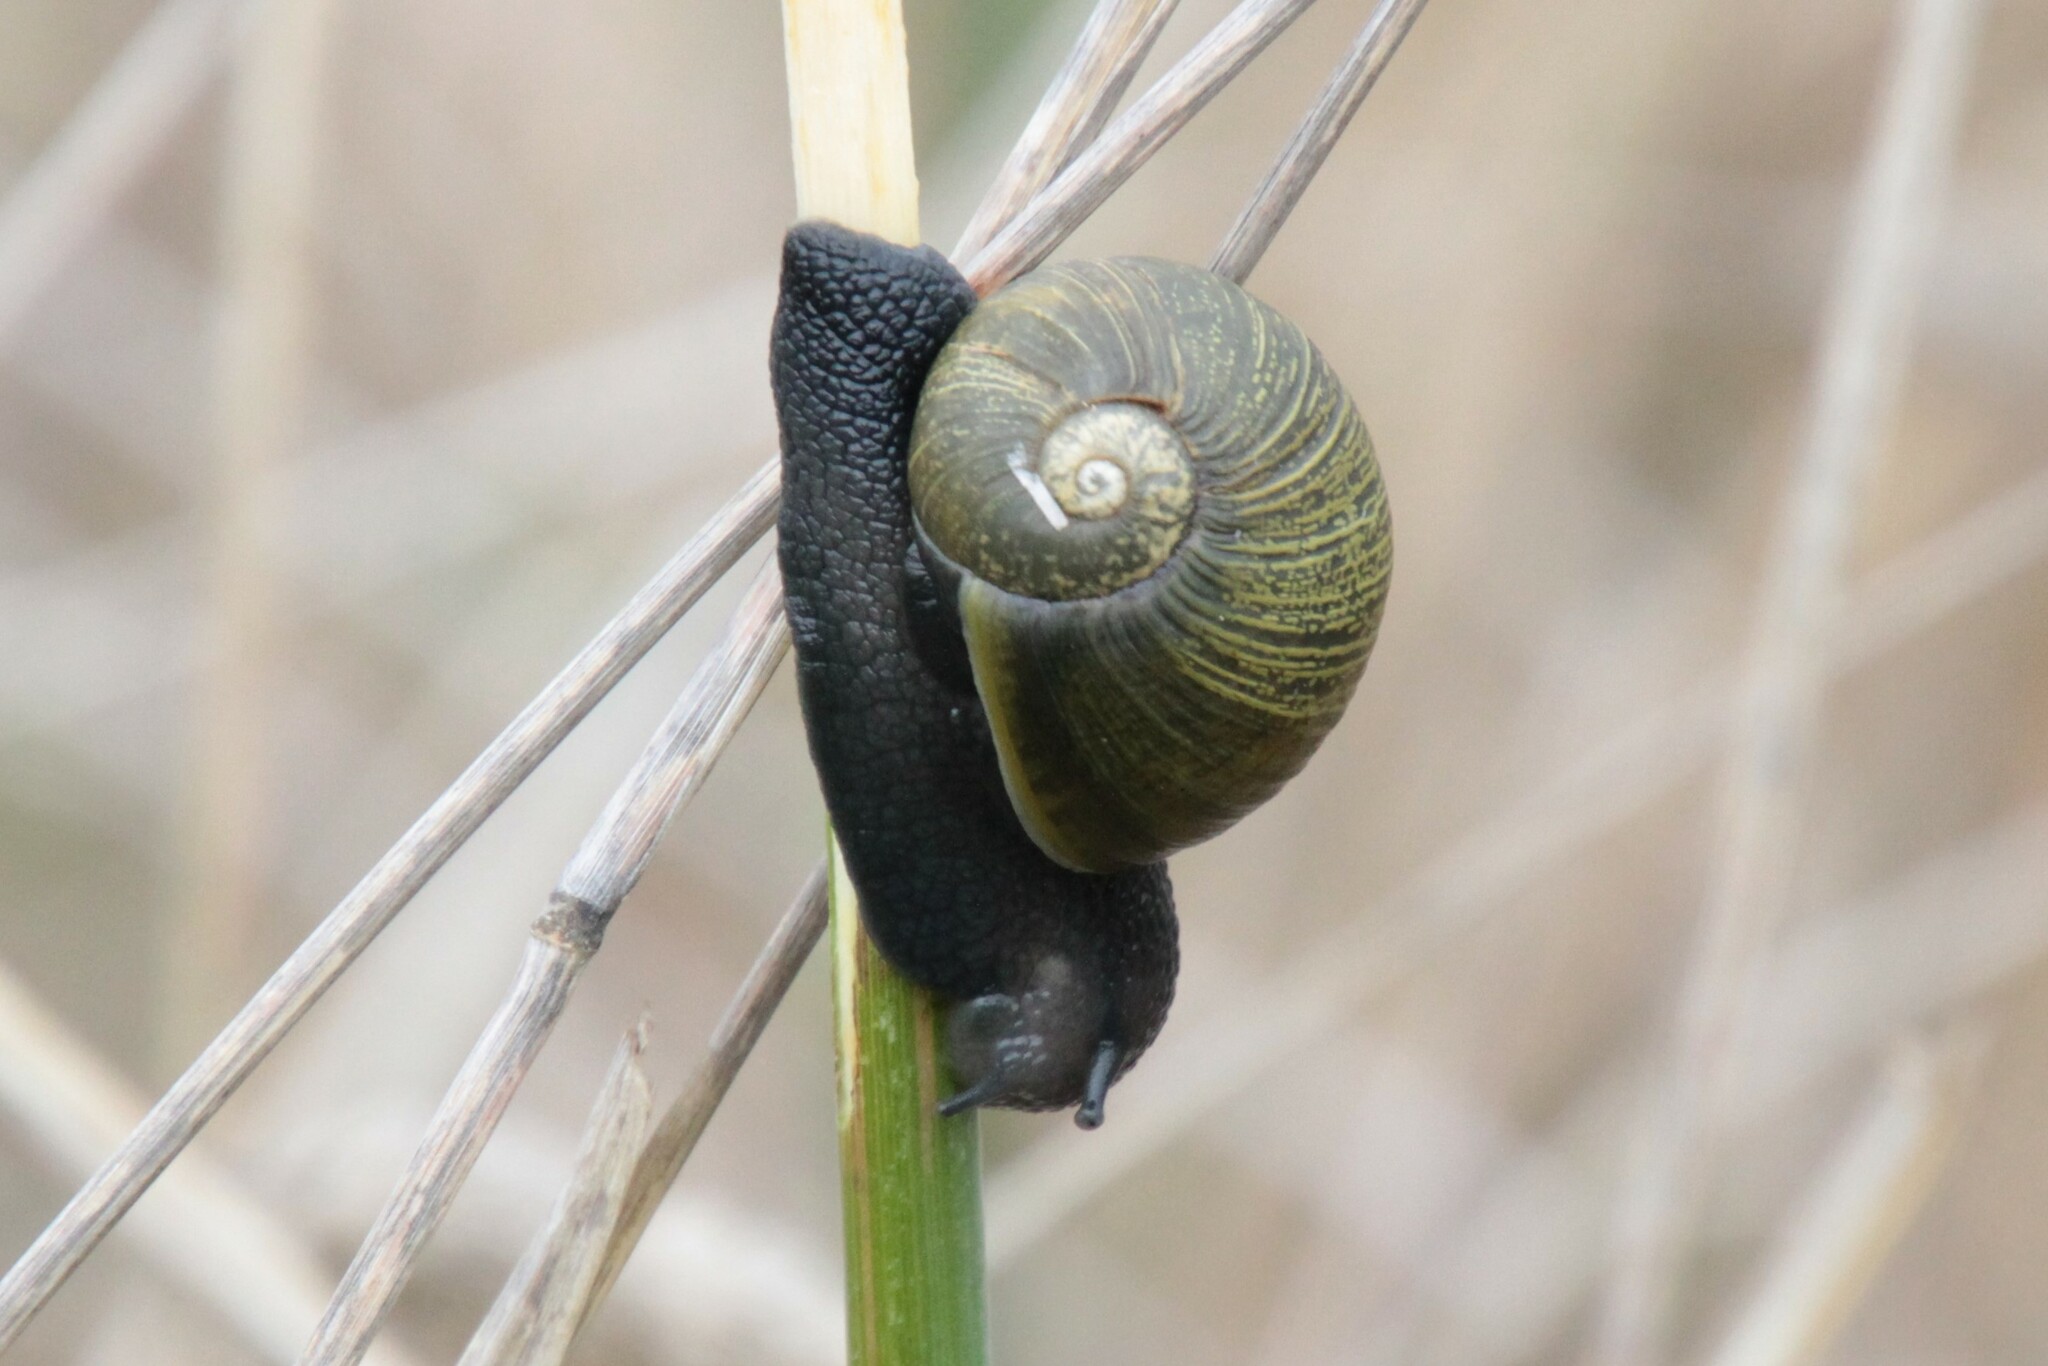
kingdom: Animalia
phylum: Mollusca
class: Gastropoda
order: Stylommatophora
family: Helicidae
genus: Cantareus
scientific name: Cantareus apertus
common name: Green gardensnail
